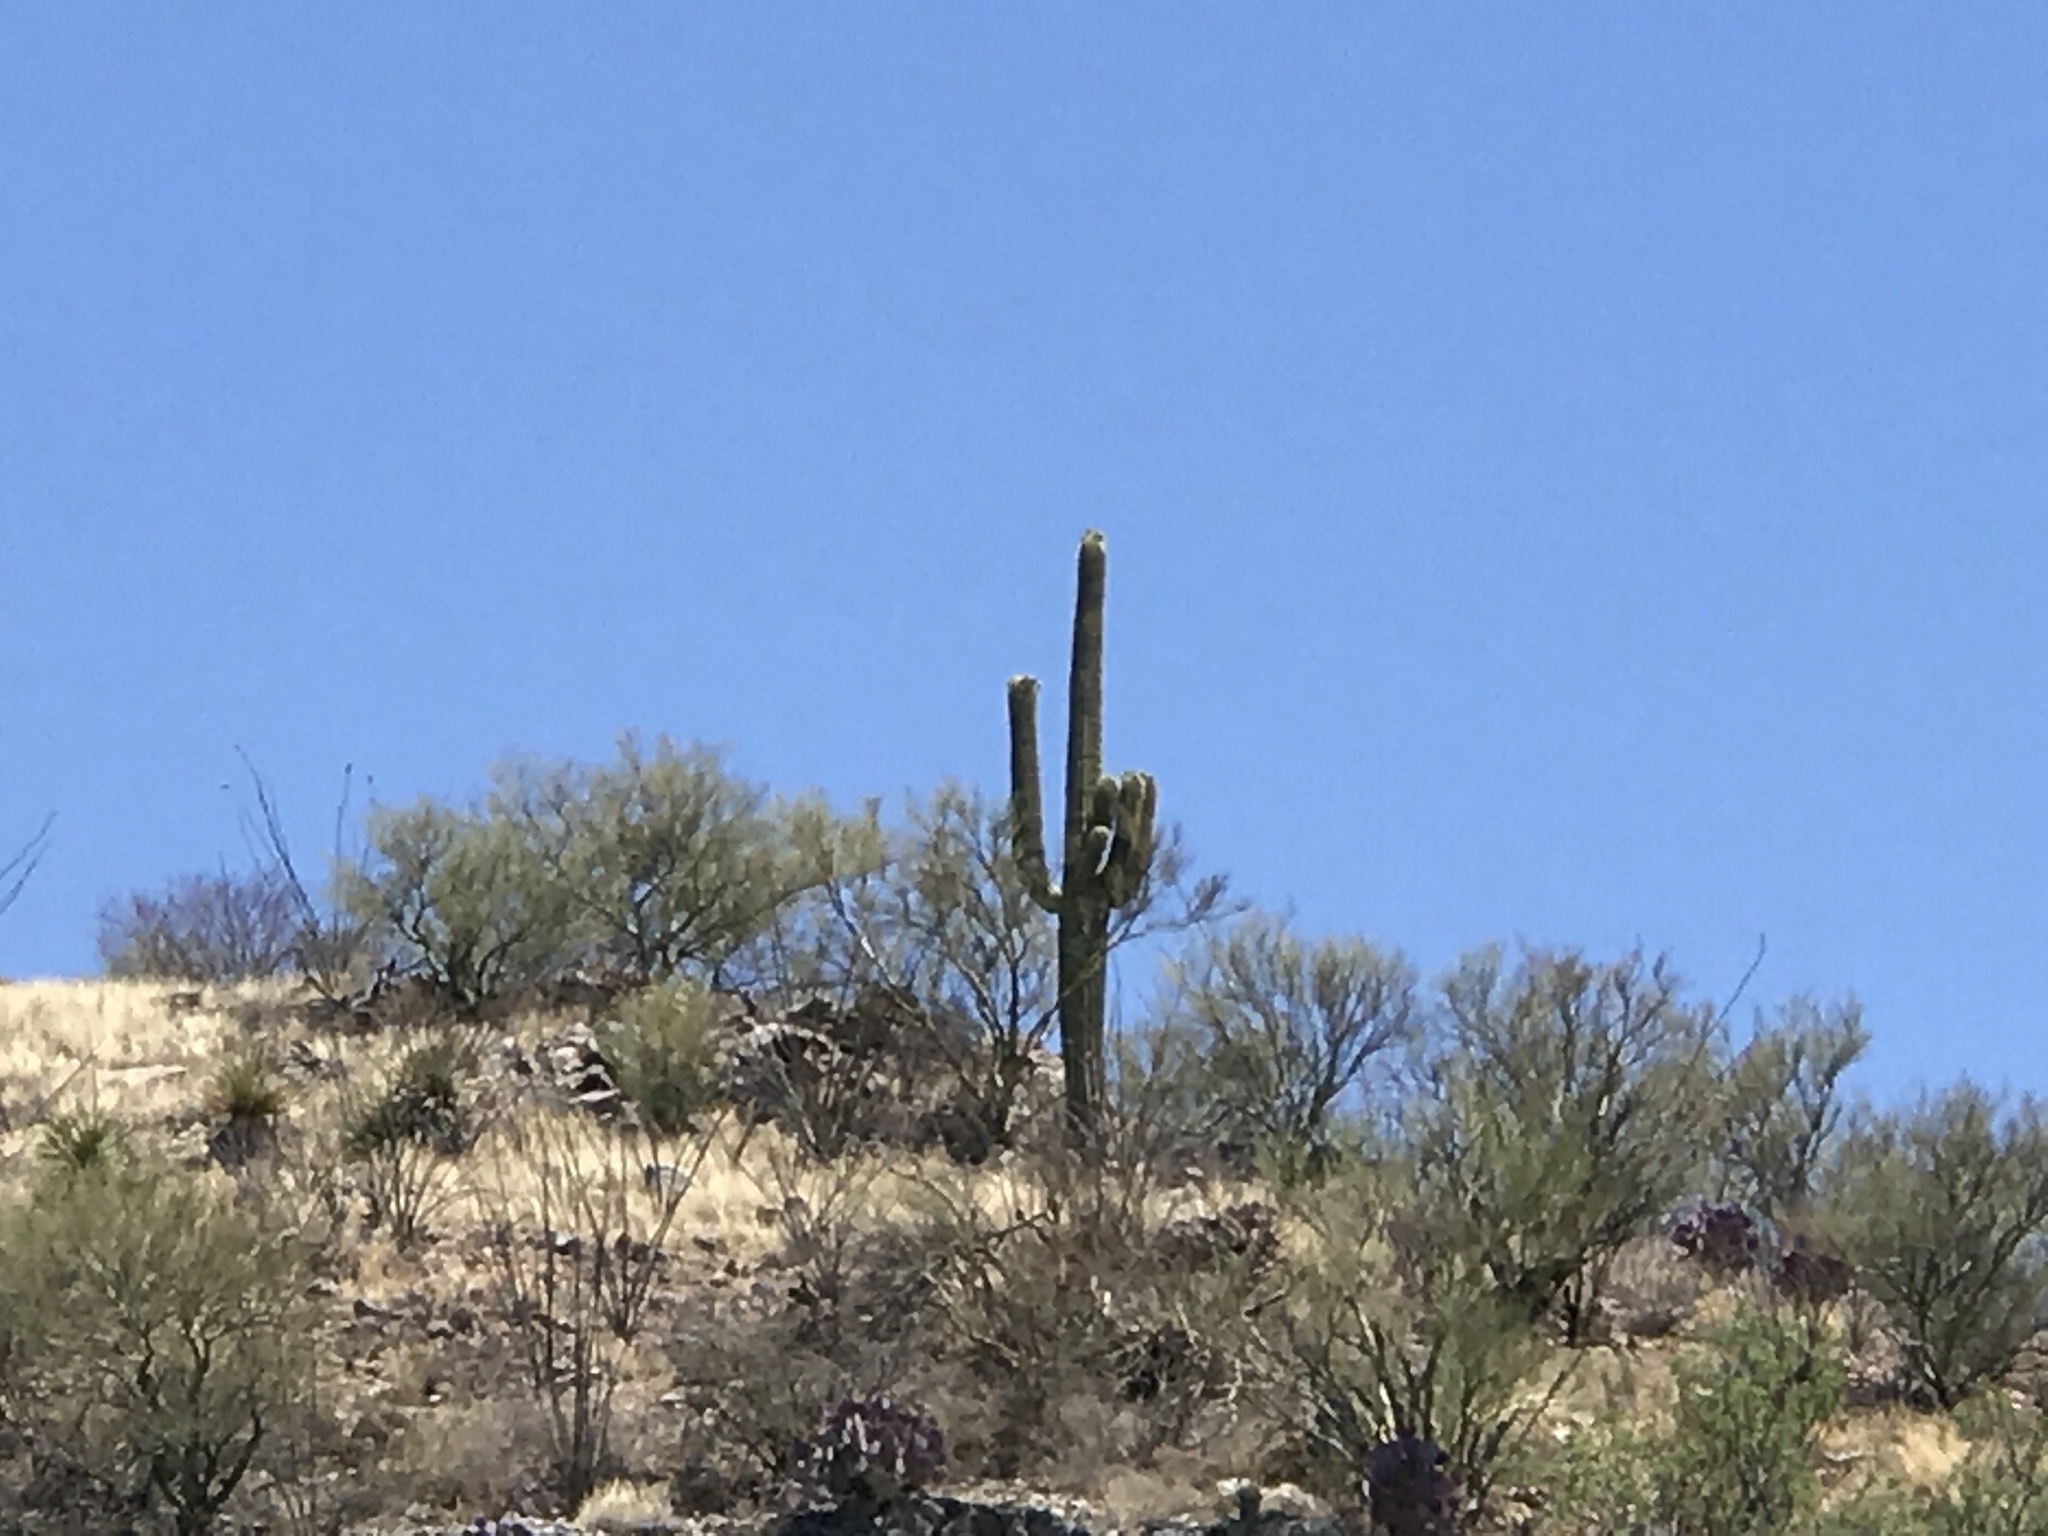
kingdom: Plantae
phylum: Tracheophyta
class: Magnoliopsida
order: Caryophyllales
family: Cactaceae
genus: Carnegiea
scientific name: Carnegiea gigantea
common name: Saguaro
